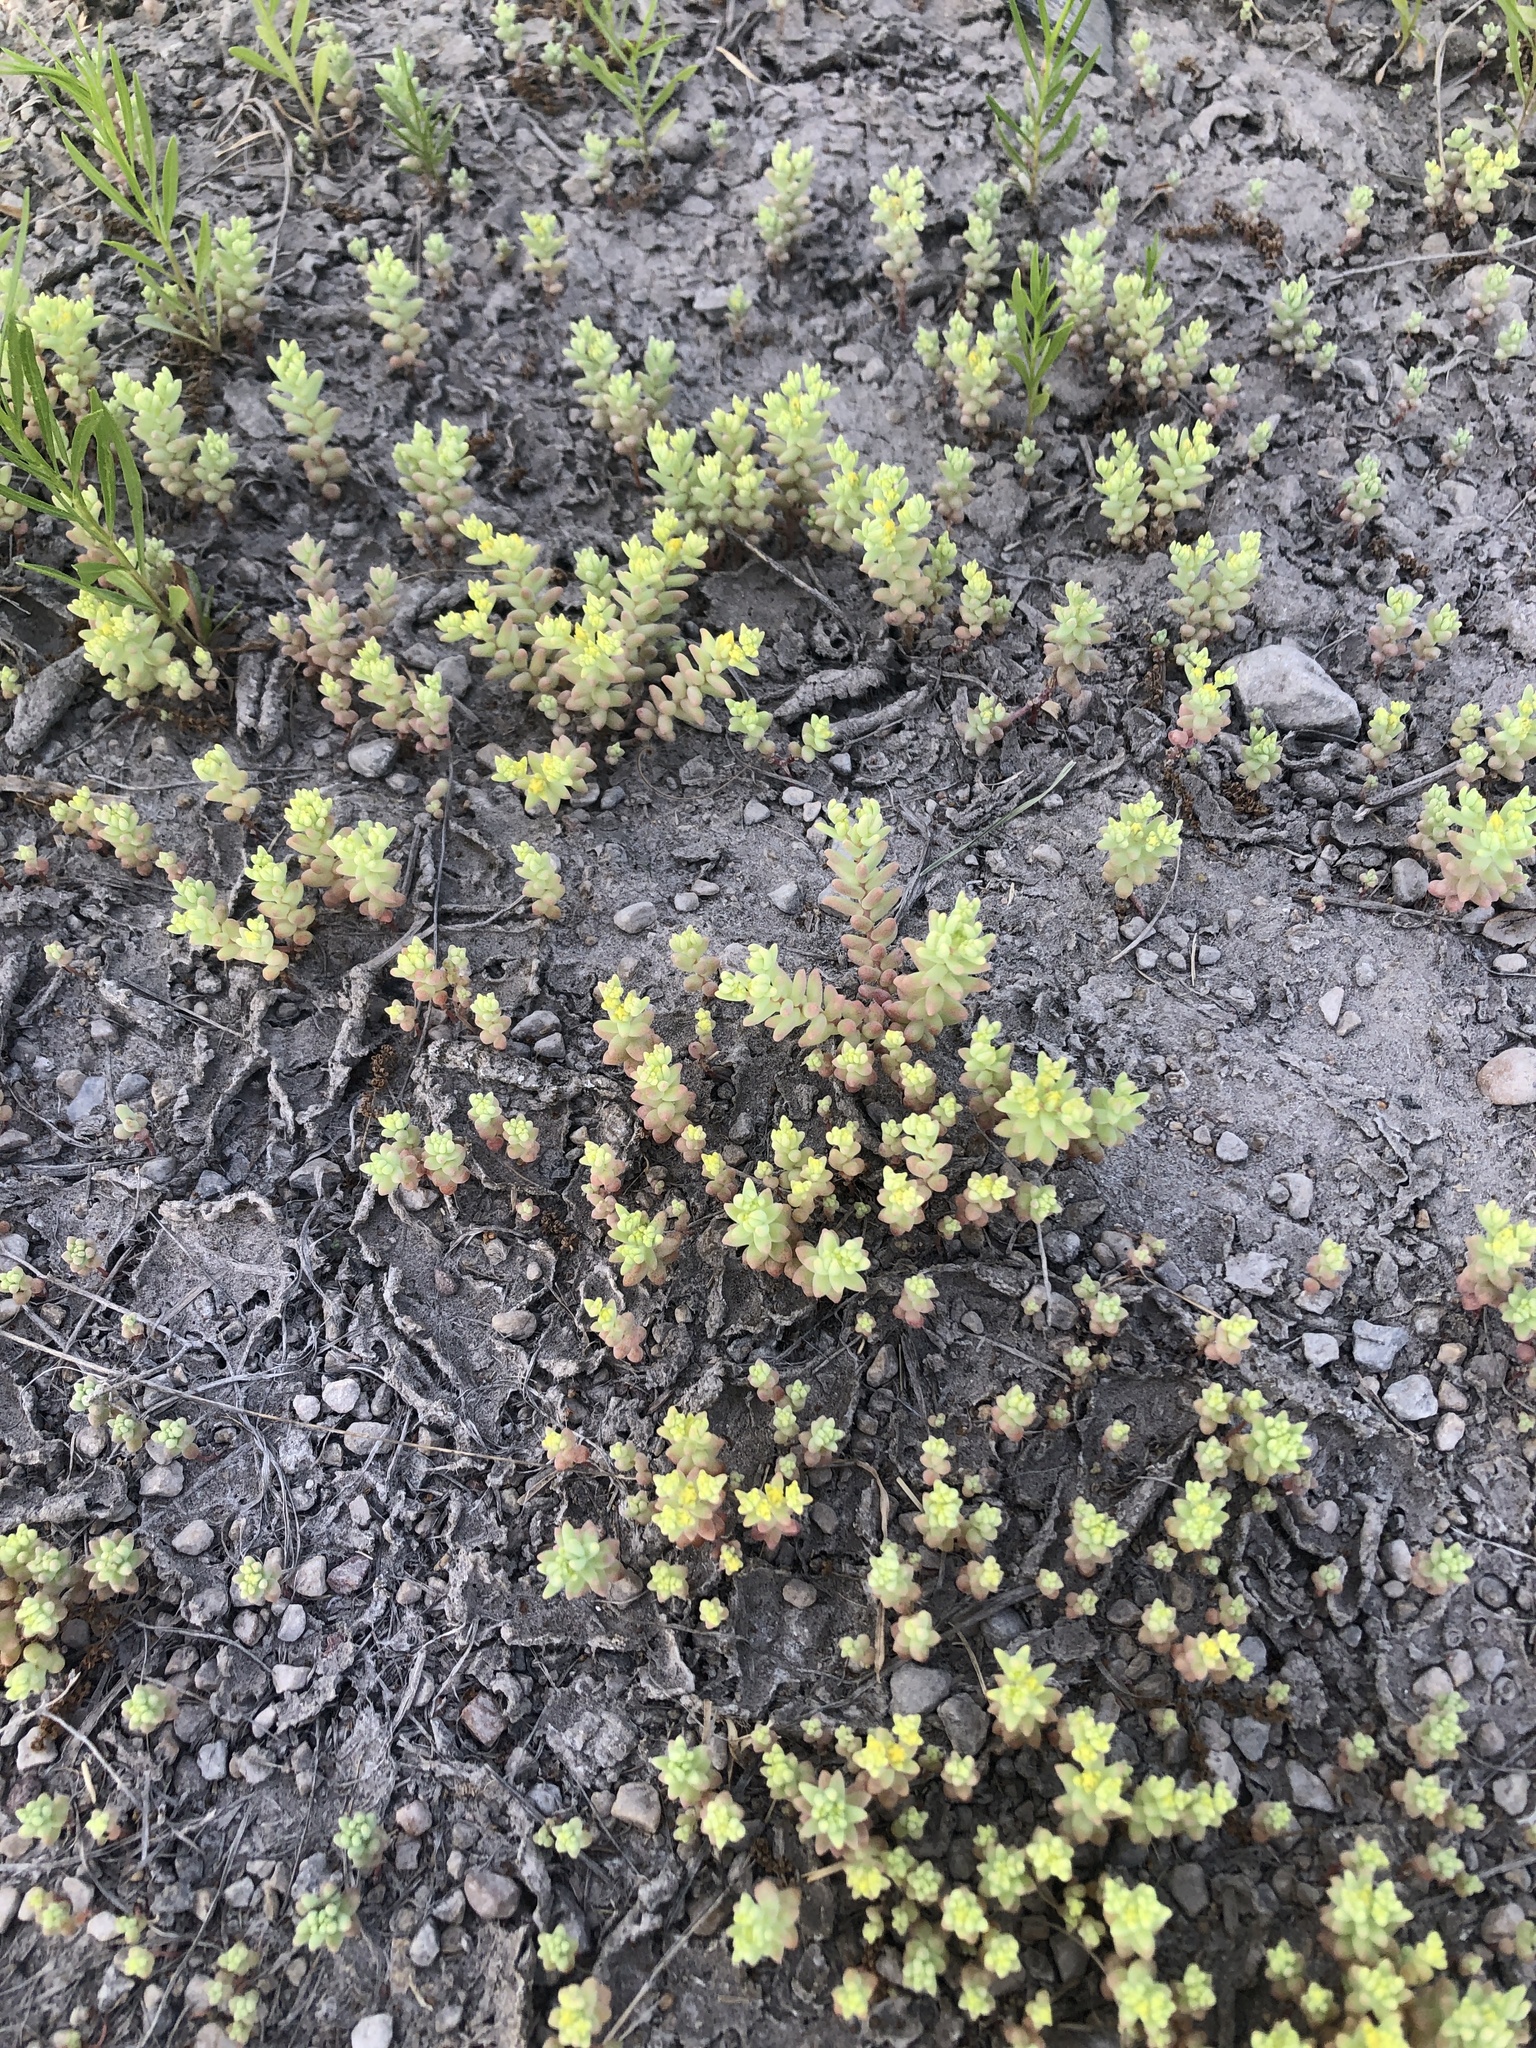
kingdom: Plantae
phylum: Tracheophyta
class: Magnoliopsida
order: Saxifragales
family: Crassulaceae
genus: Sedum
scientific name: Sedum nuttallii
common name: Yellow stonecrop
